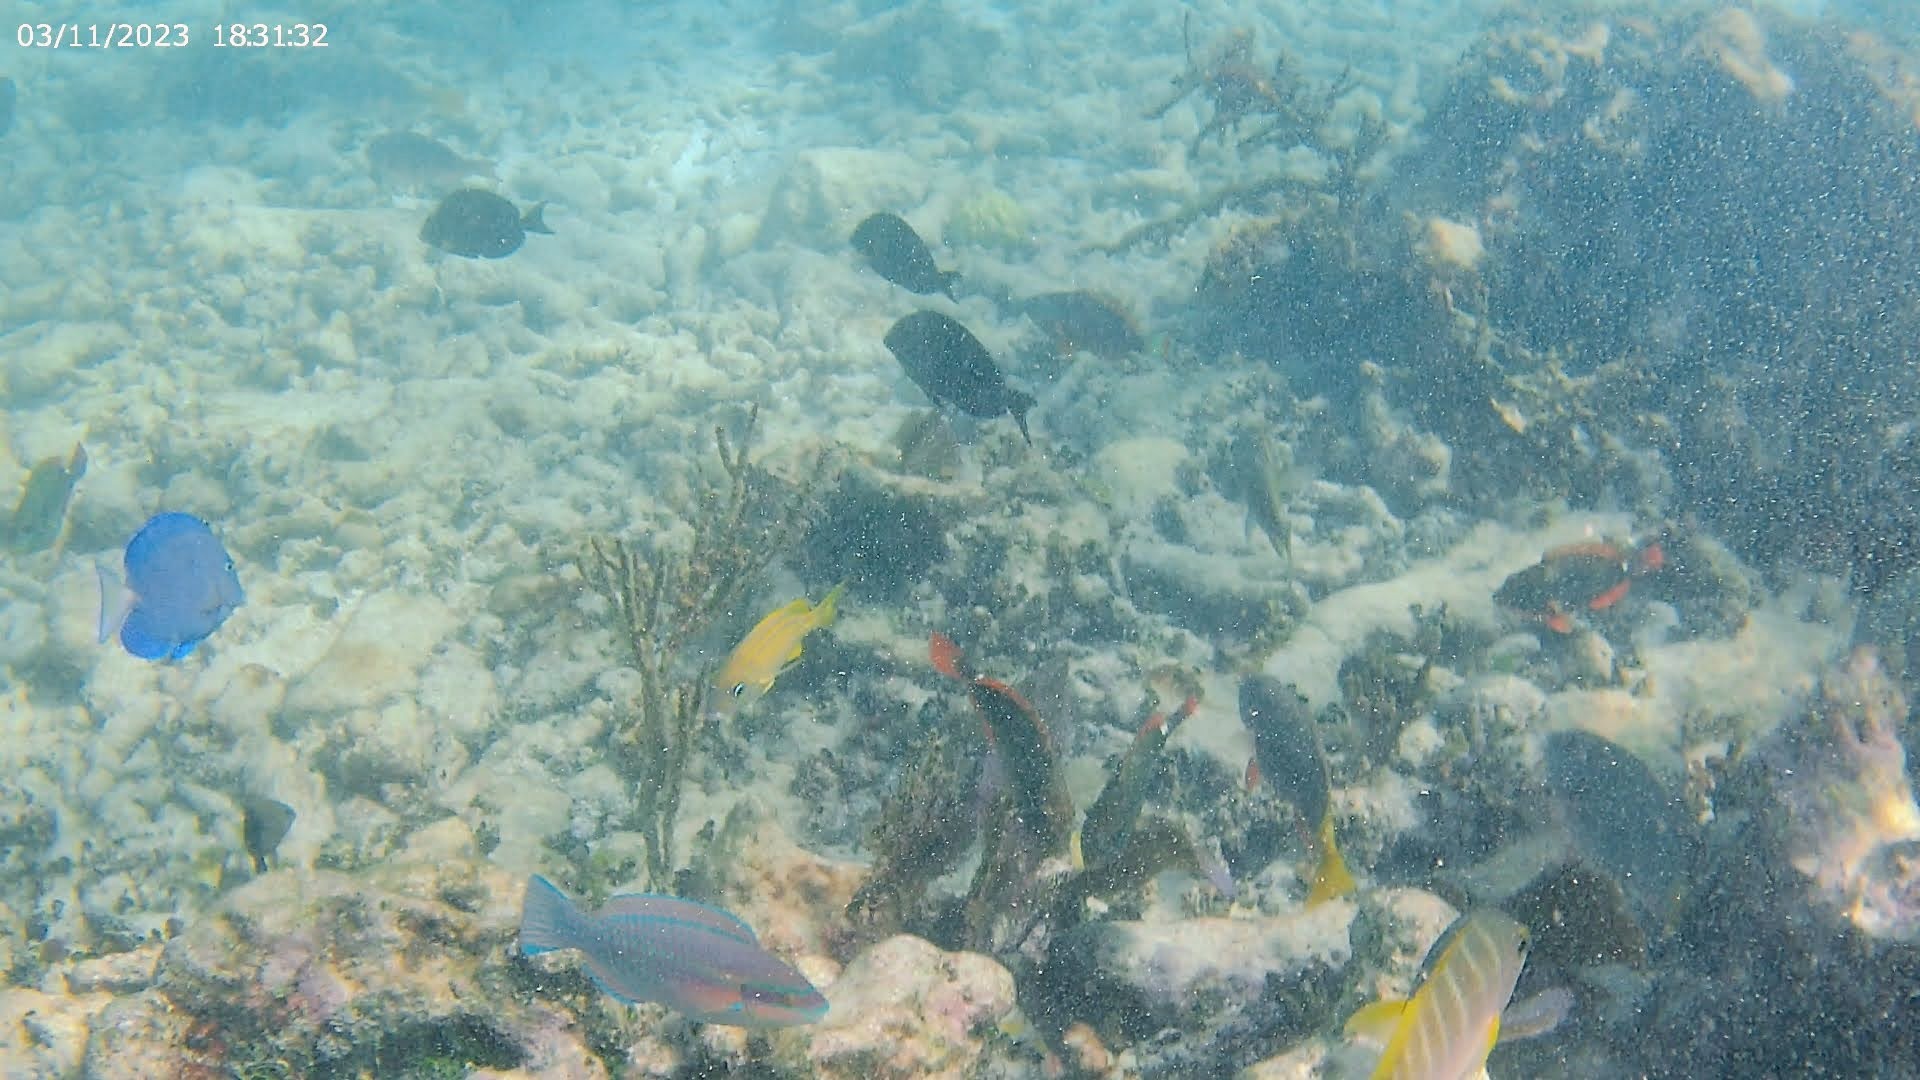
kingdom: Animalia
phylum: Chordata
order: Perciformes
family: Scaridae
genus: Scarus
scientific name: Scarus iseri
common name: Striped parrotfish
